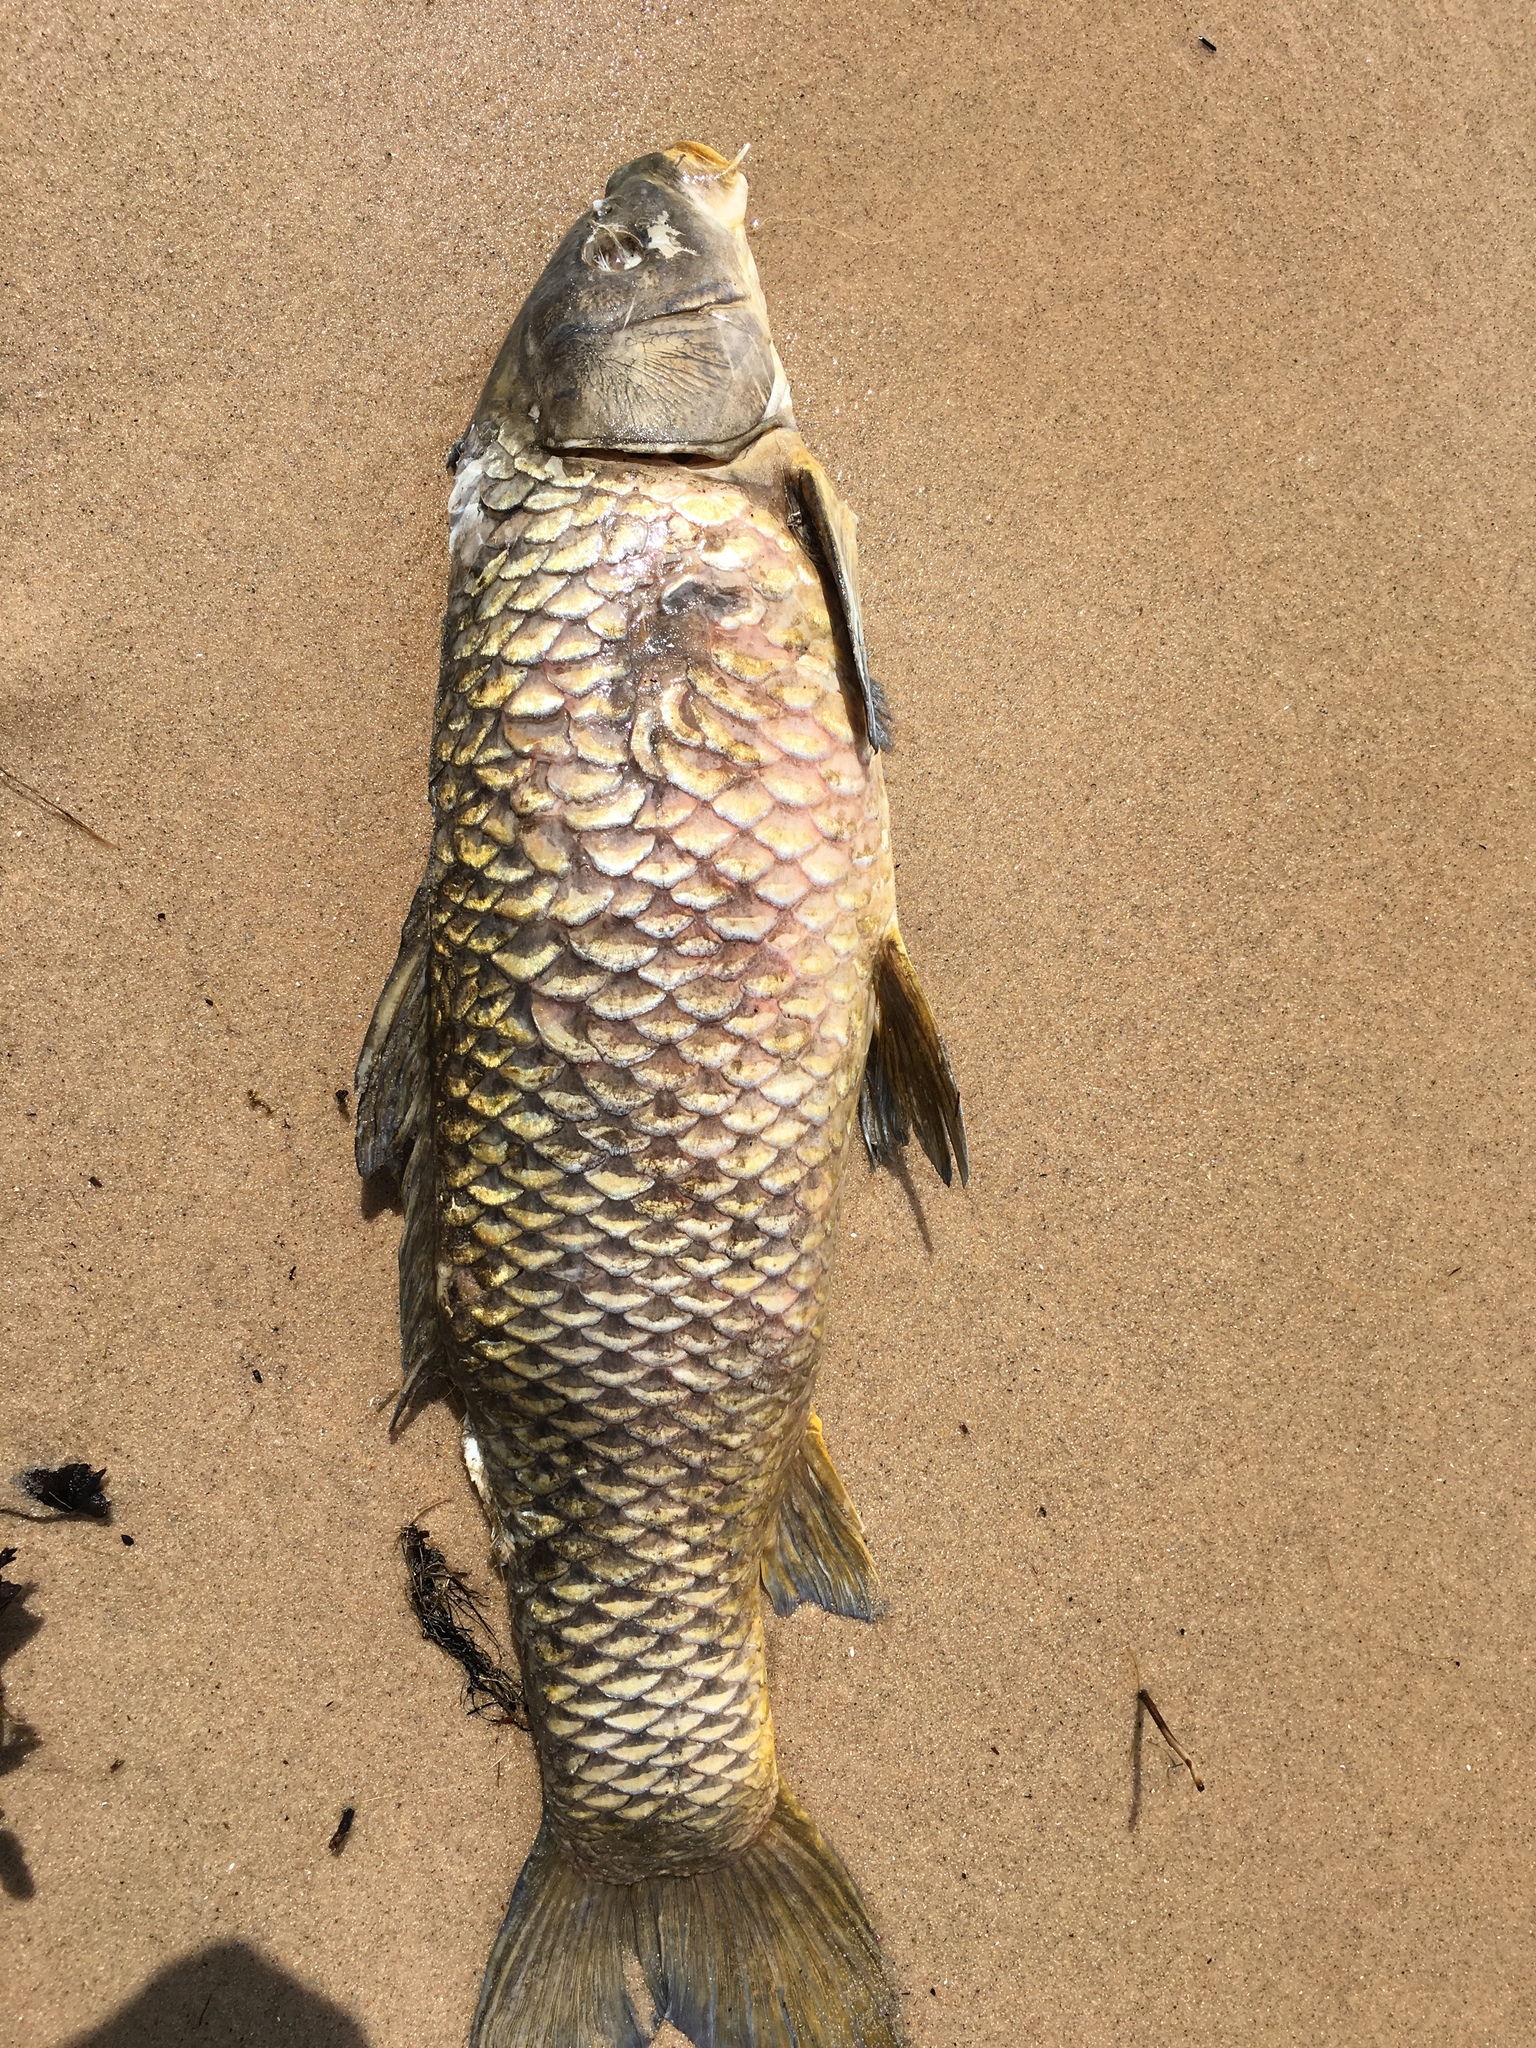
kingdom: Animalia
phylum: Chordata
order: Cypriniformes
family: Cyprinidae
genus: Cyprinus
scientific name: Cyprinus carpio
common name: Common carp
